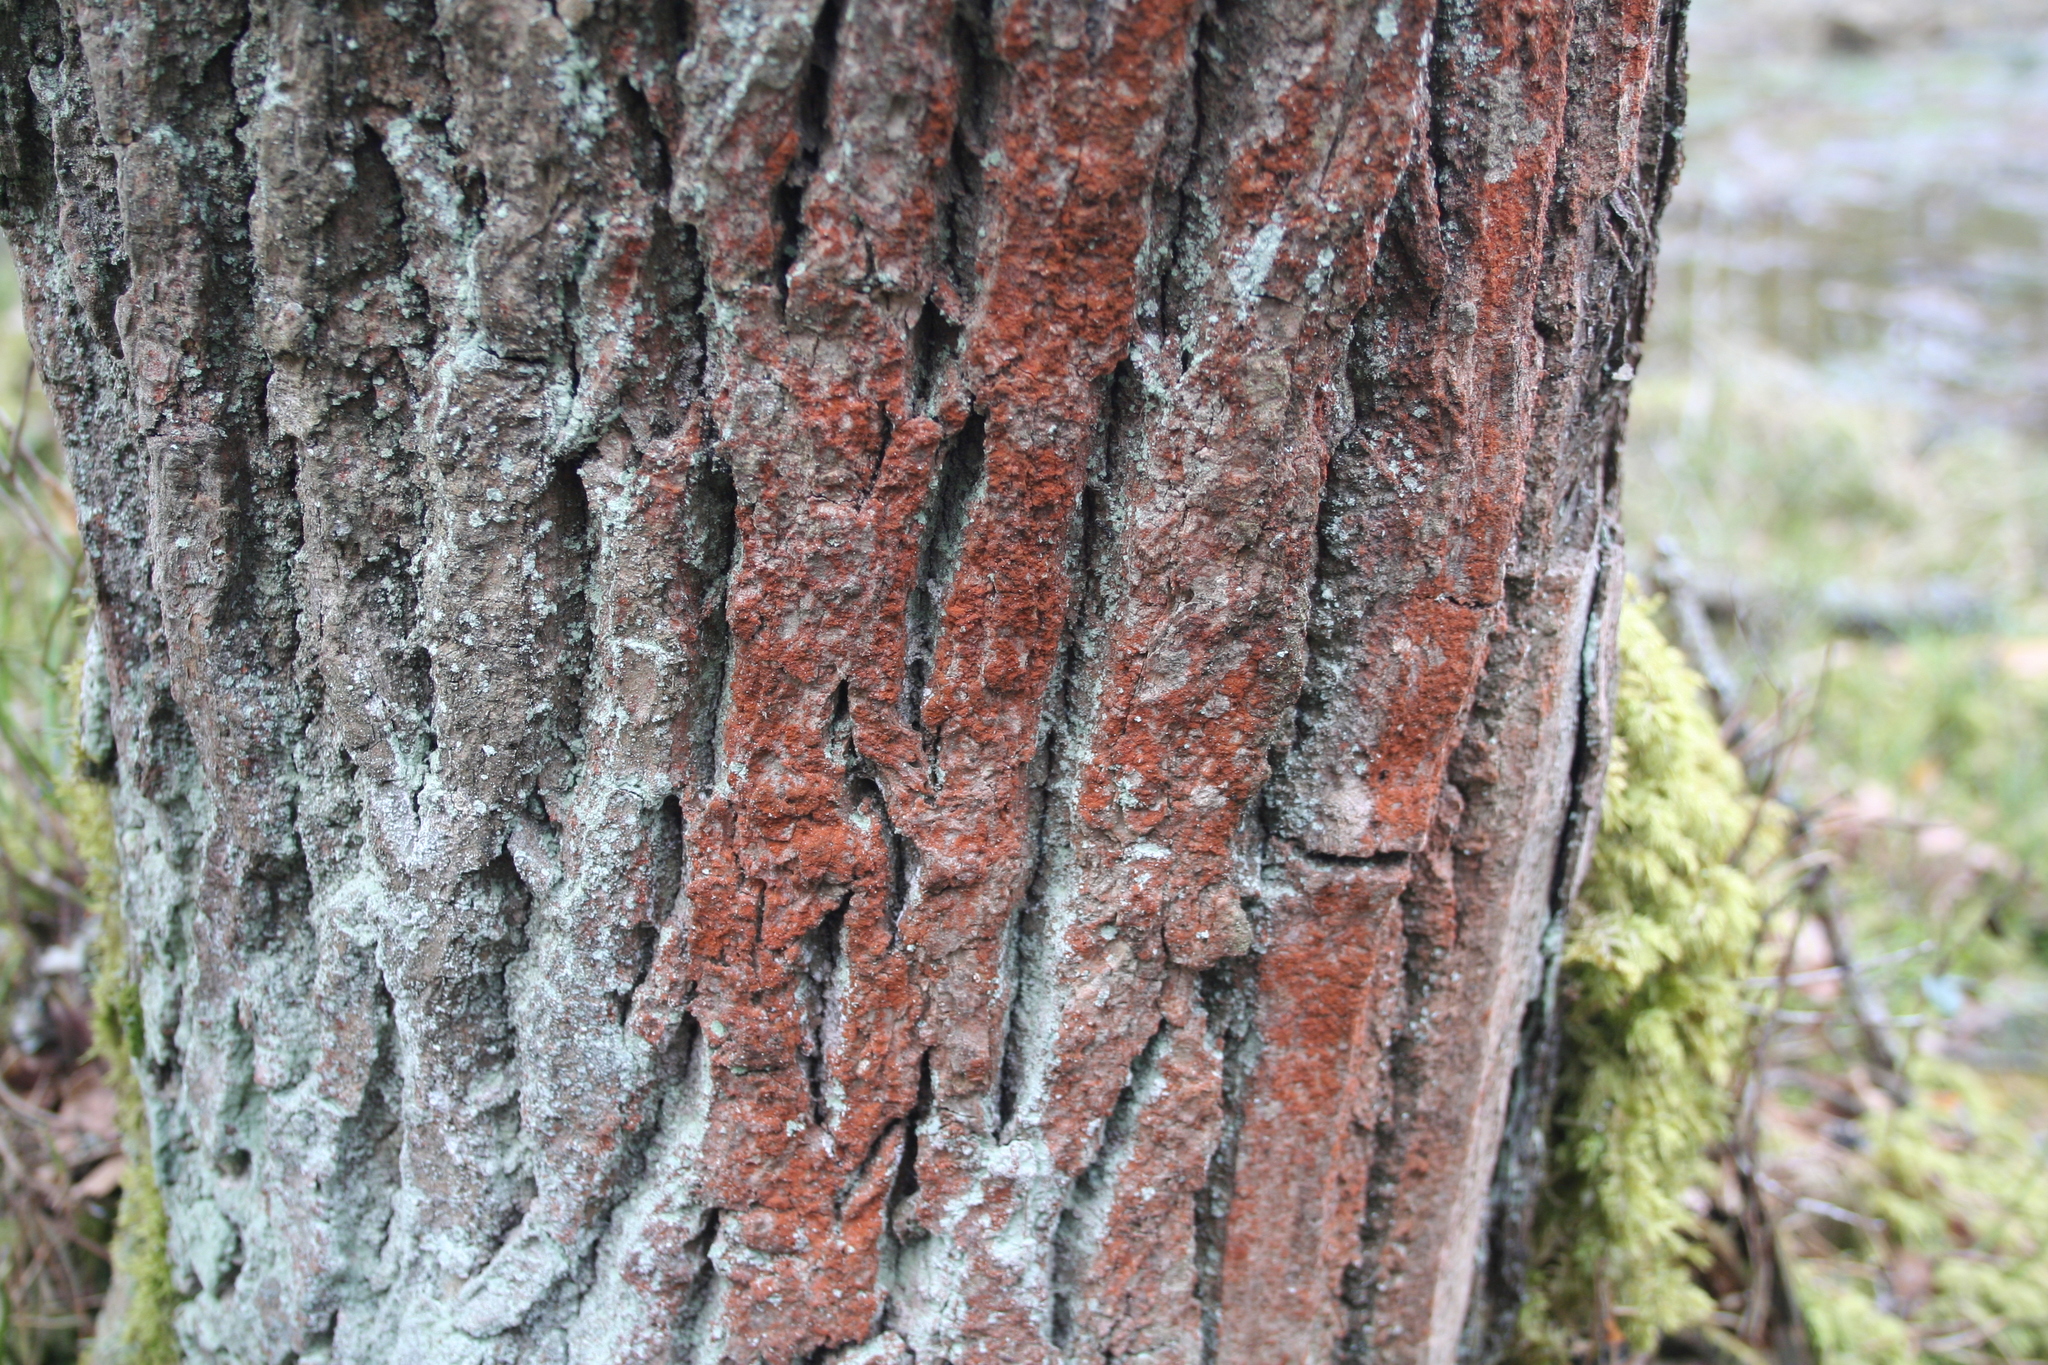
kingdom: Plantae
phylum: Chlorophyta
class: Ulvophyceae
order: Trentepohliales
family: Trentepohliaceae
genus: Trentepohlia
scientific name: Trentepohlia
